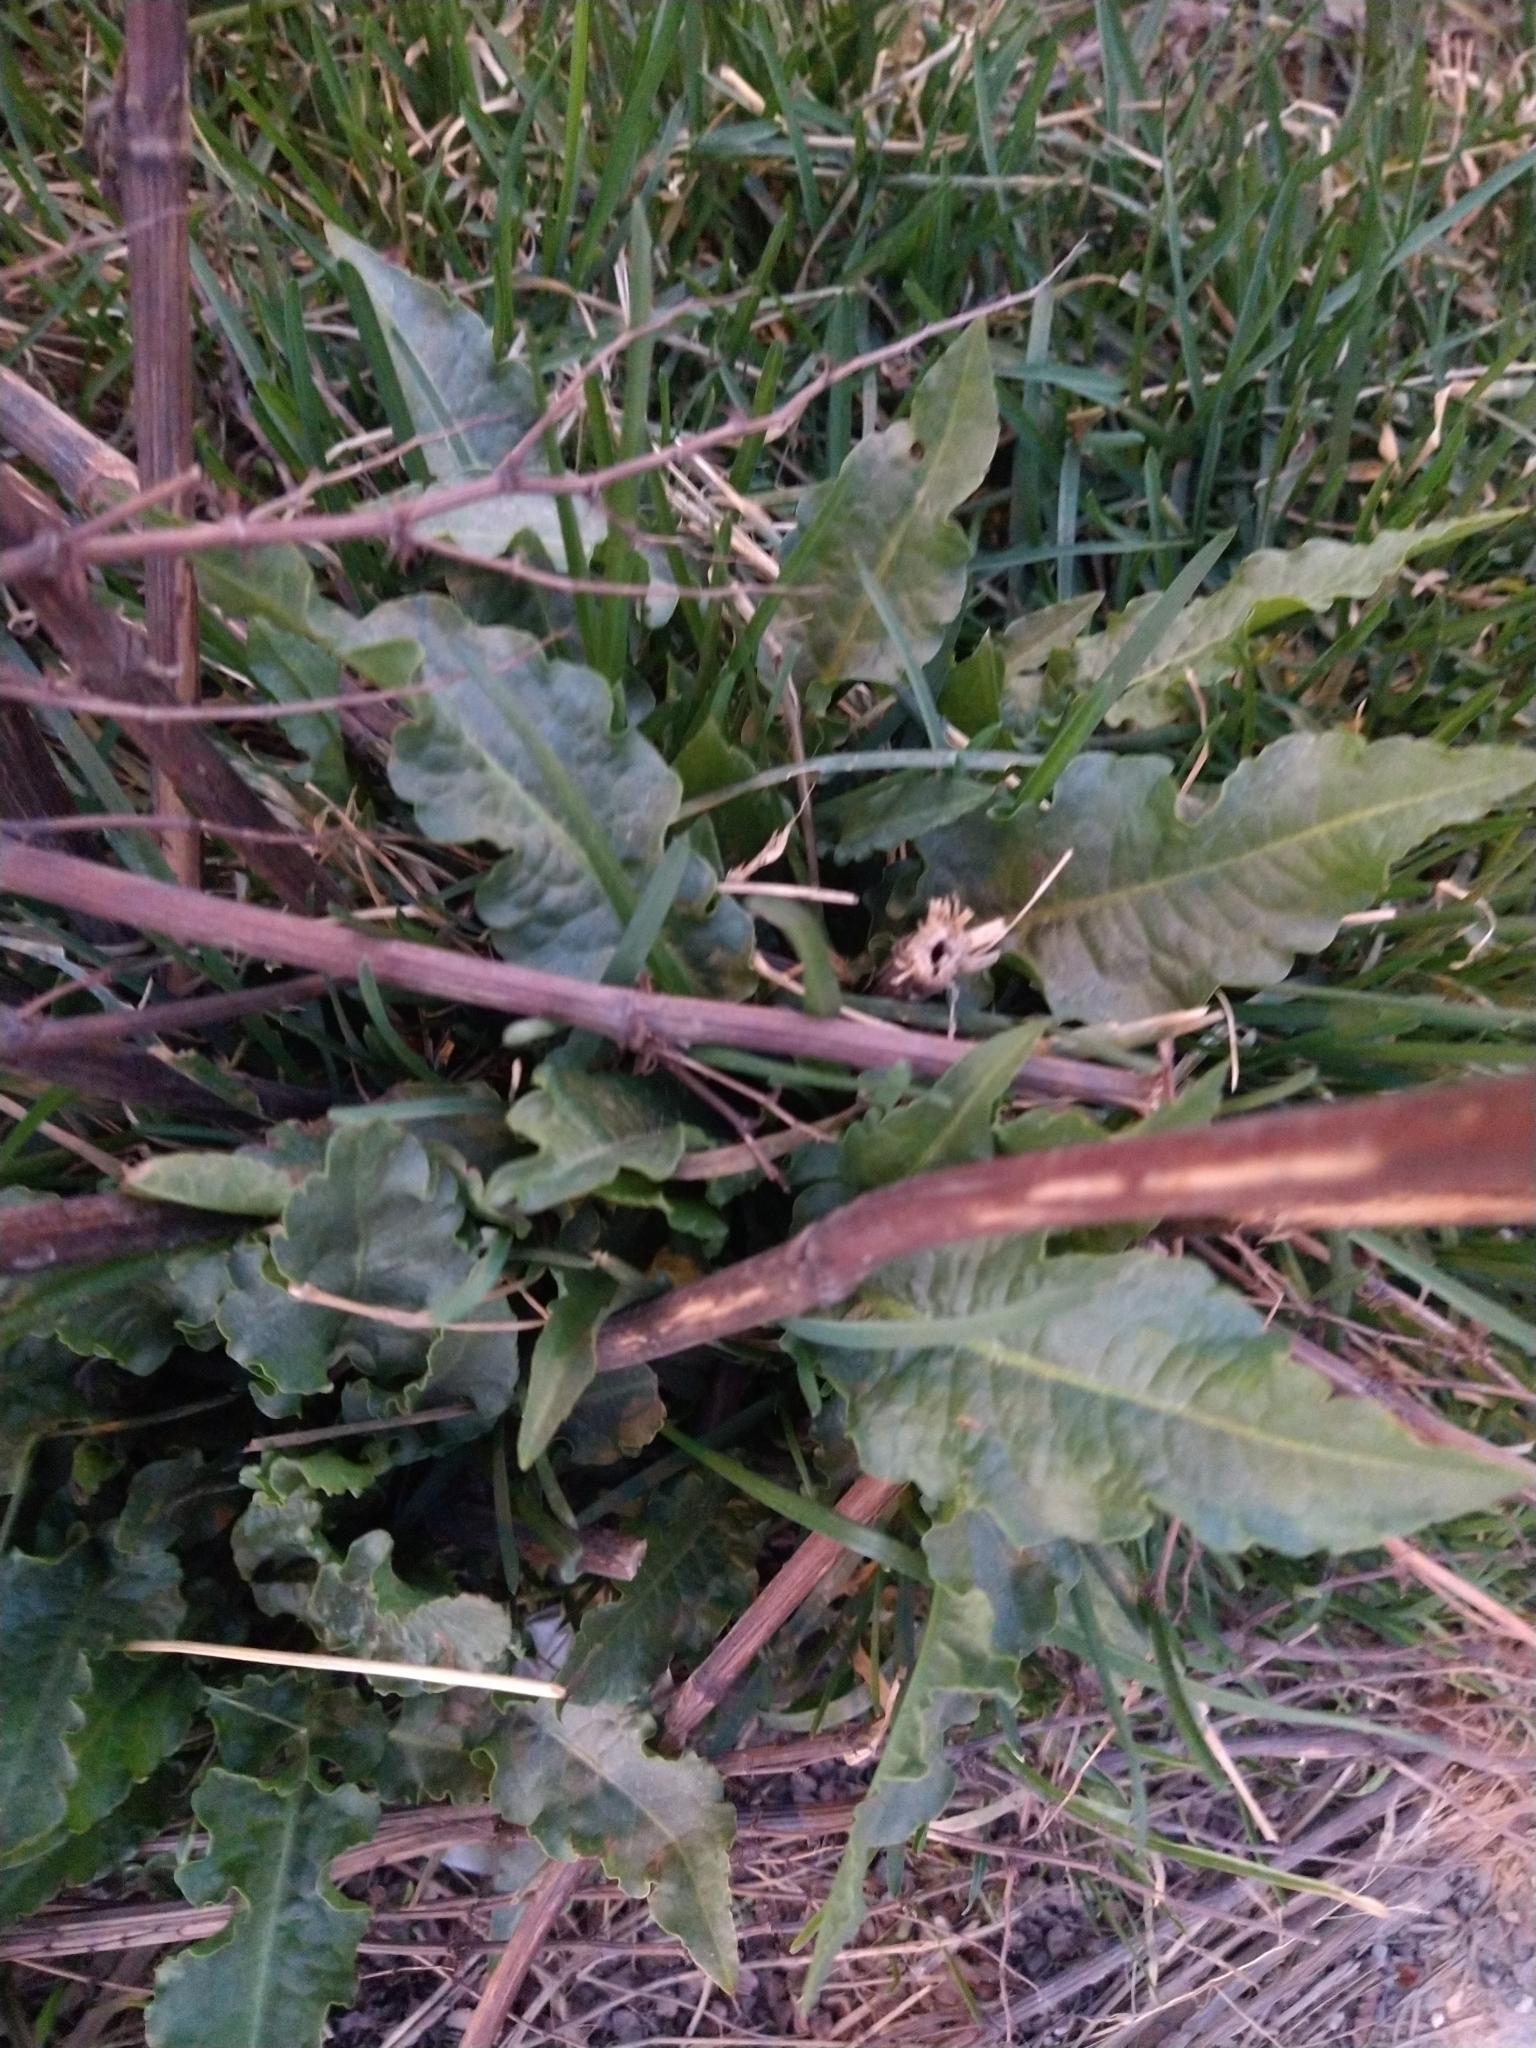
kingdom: Plantae
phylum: Tracheophyta
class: Magnoliopsida
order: Caryophyllales
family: Polygonaceae
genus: Rumex
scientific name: Rumex crispus
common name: Curled dock
